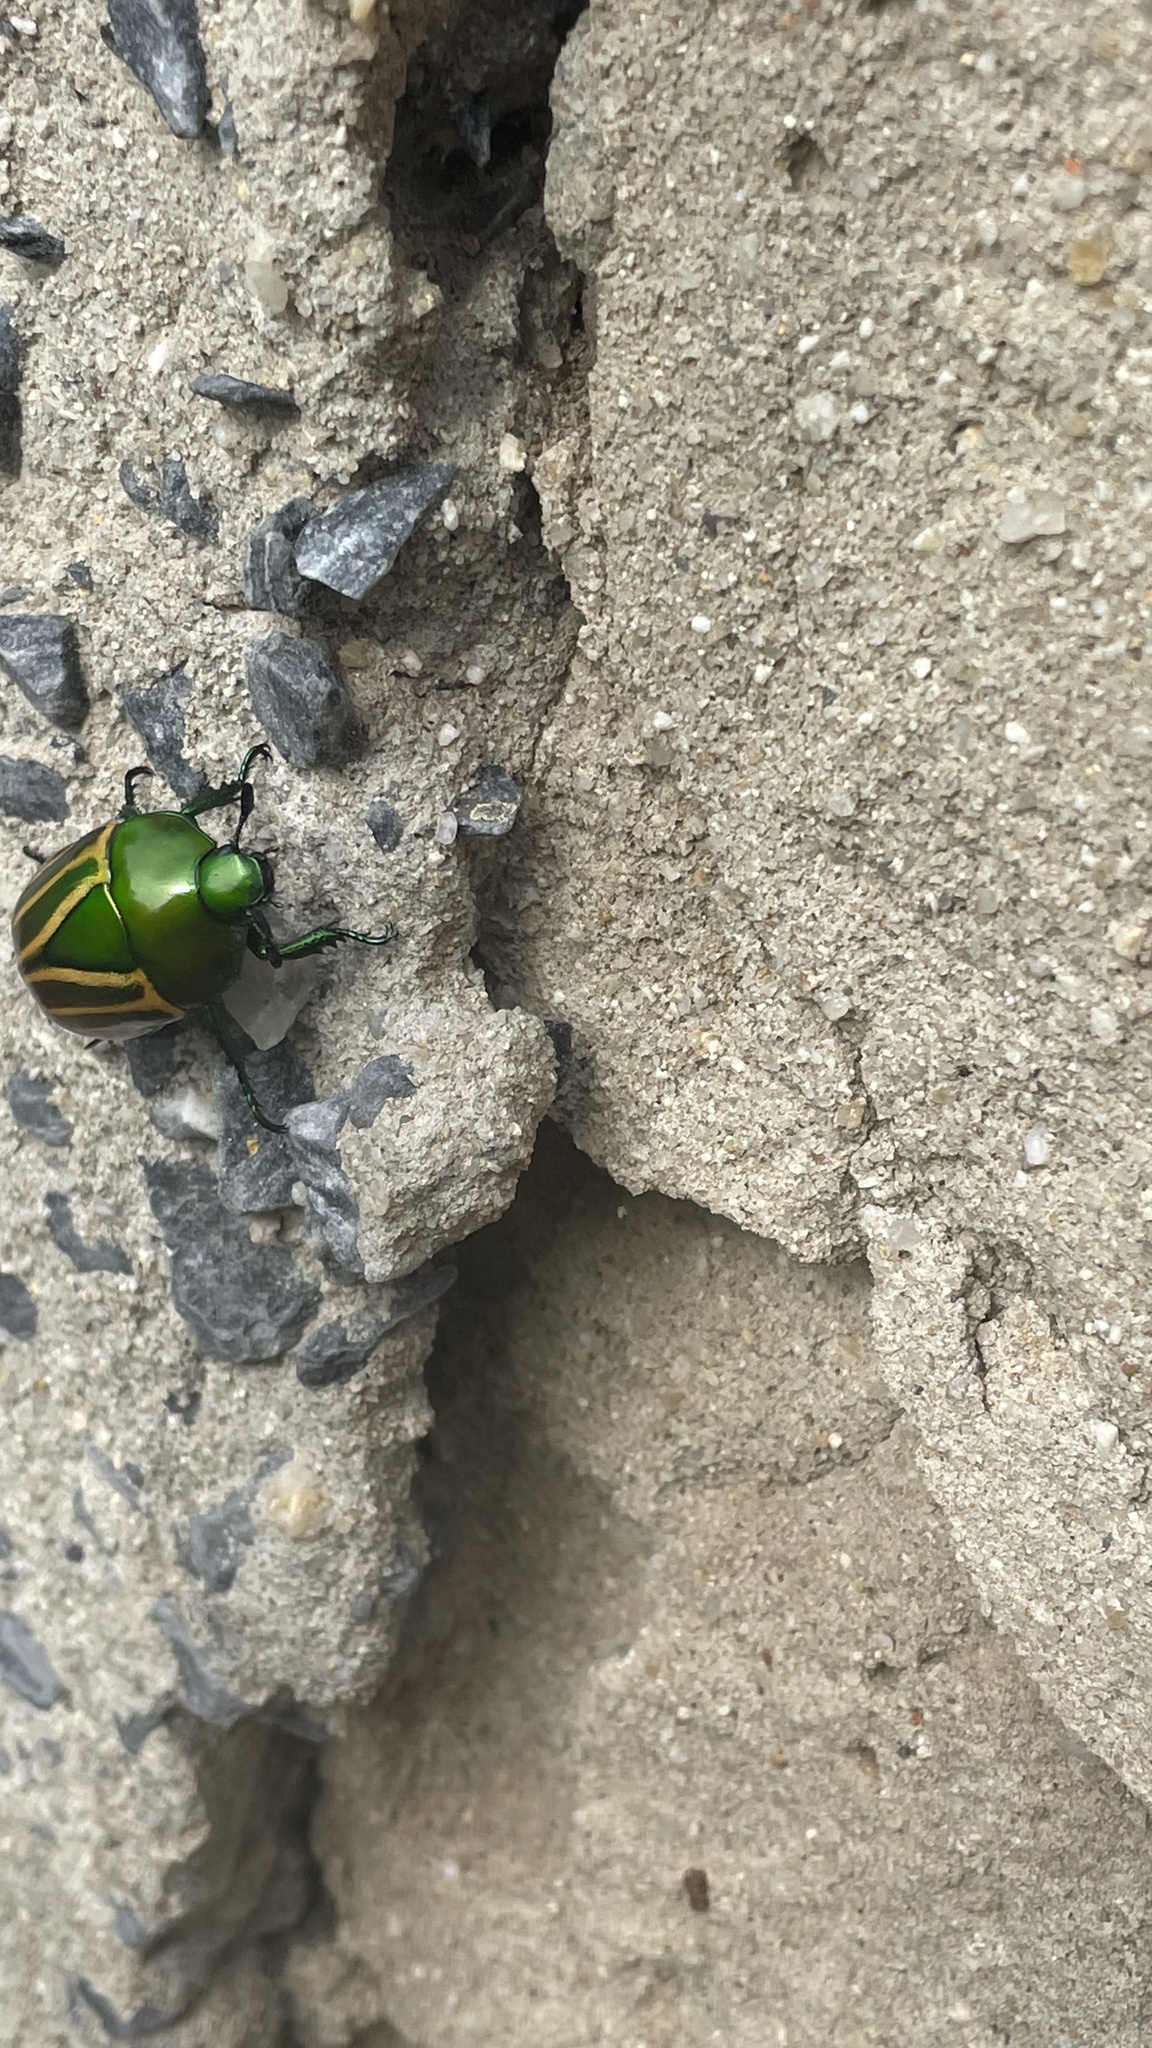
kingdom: Animalia
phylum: Arthropoda
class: Insecta
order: Coleoptera
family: Scarabaeidae
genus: Macraspis
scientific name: Macraspis festiva
